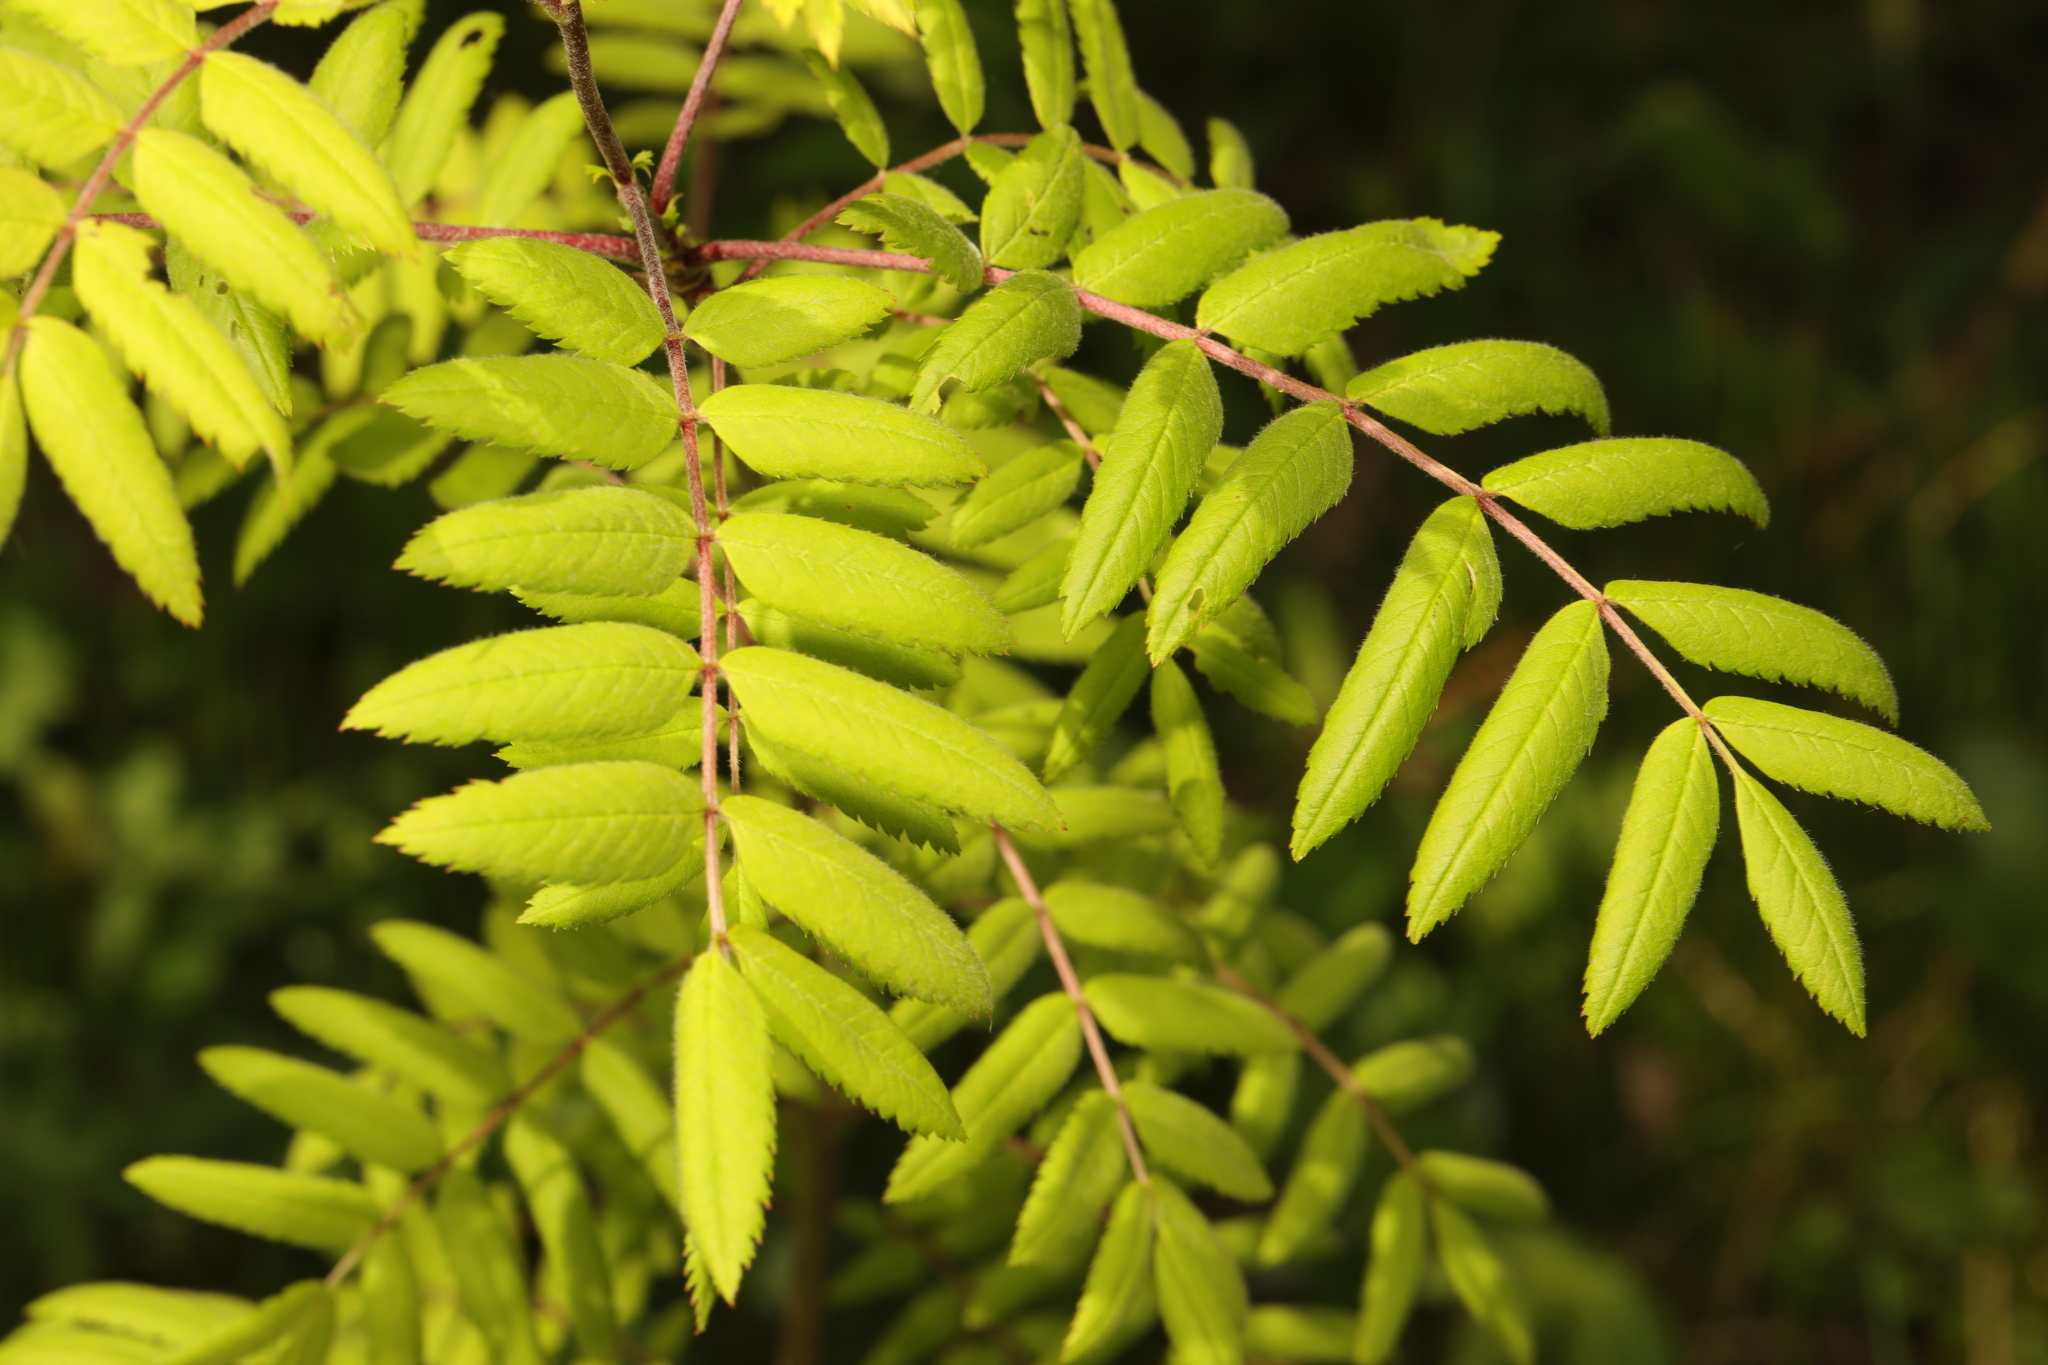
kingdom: Plantae
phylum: Tracheophyta
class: Magnoliopsida
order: Rosales
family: Rosaceae
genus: Sorbus
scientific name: Sorbus aucuparia
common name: Rowan
